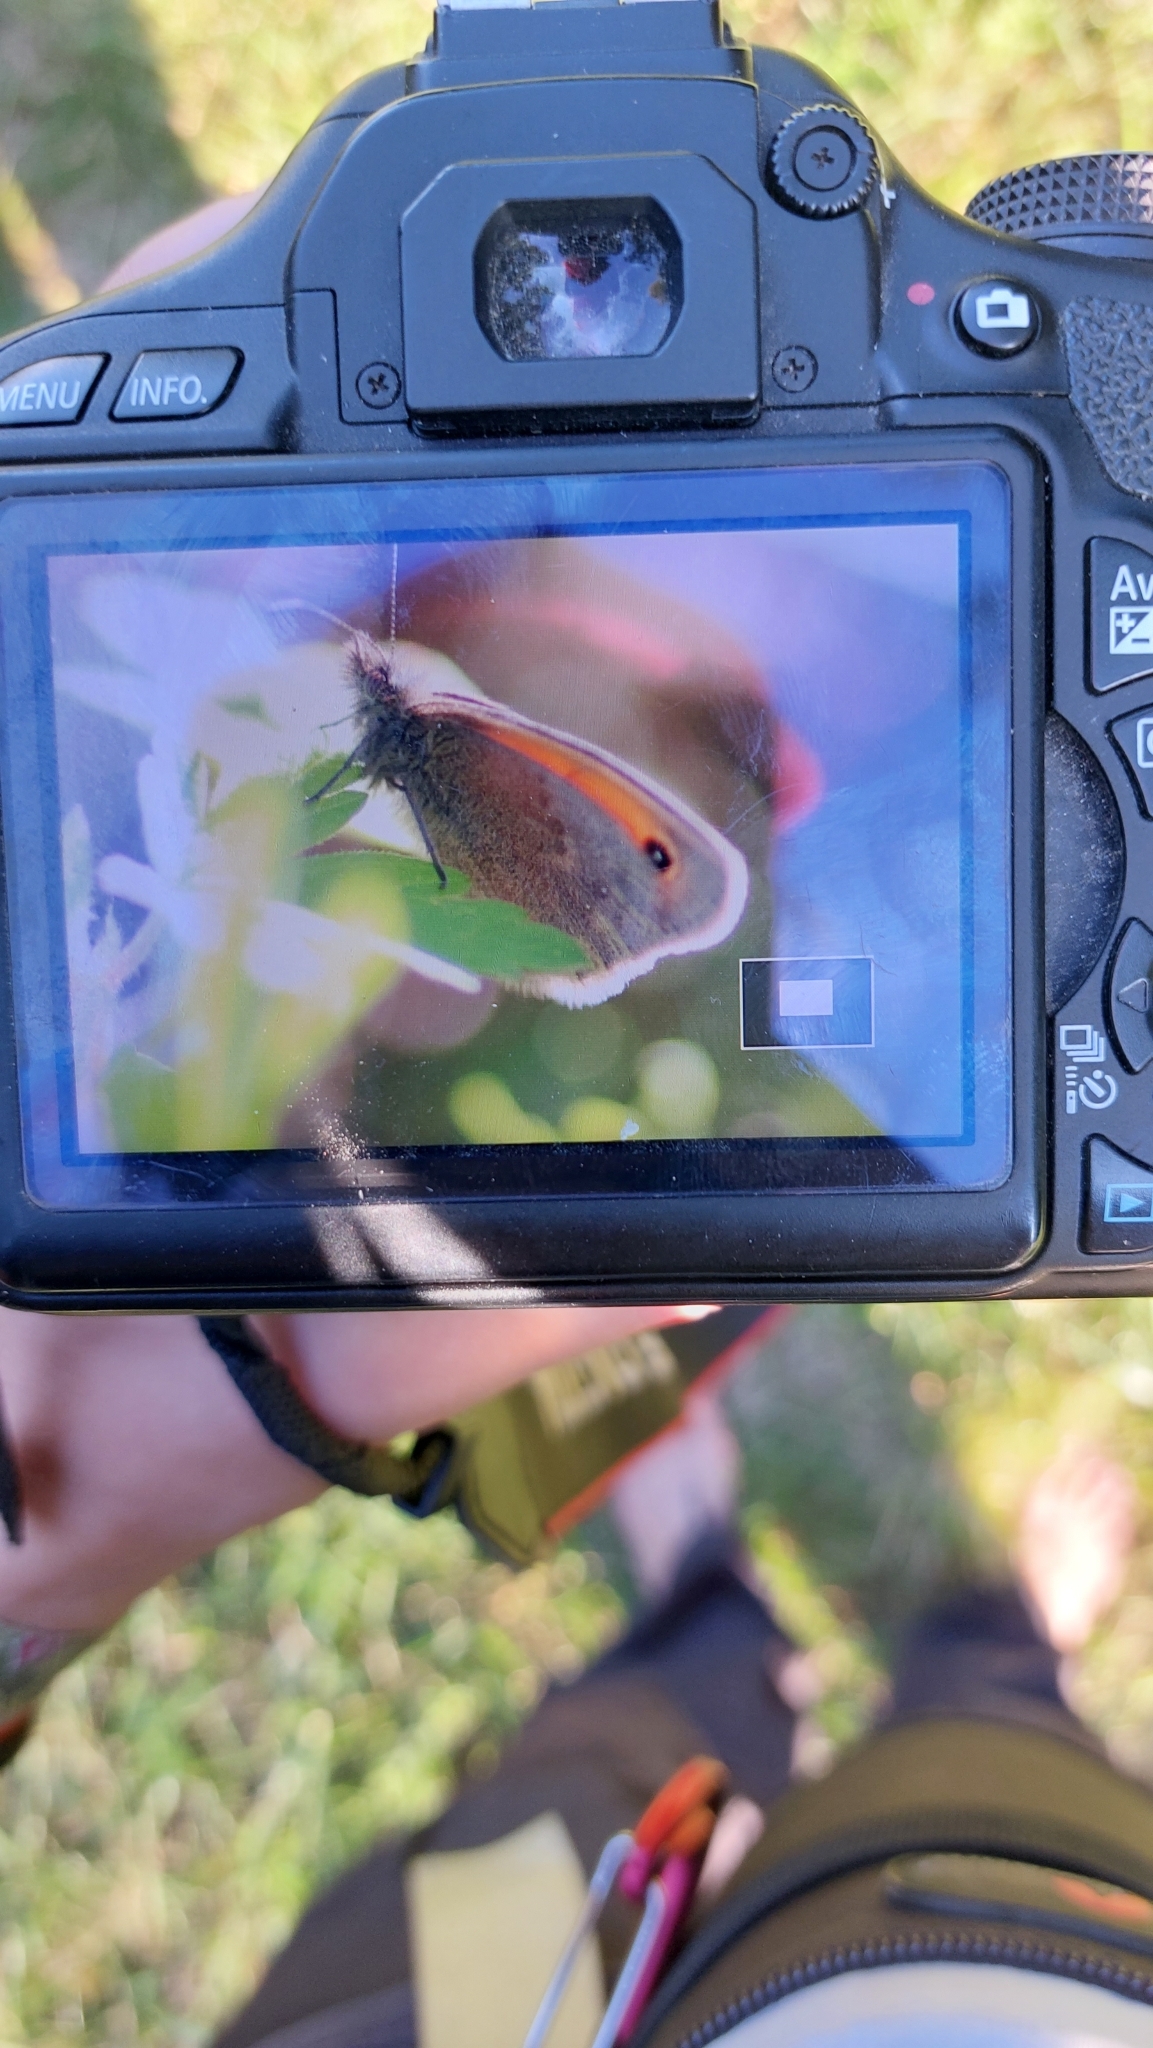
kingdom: Animalia
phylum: Arthropoda
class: Insecta
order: Lepidoptera
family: Nymphalidae
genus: Coenonympha
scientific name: Coenonympha pamphilus
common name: Small heath
